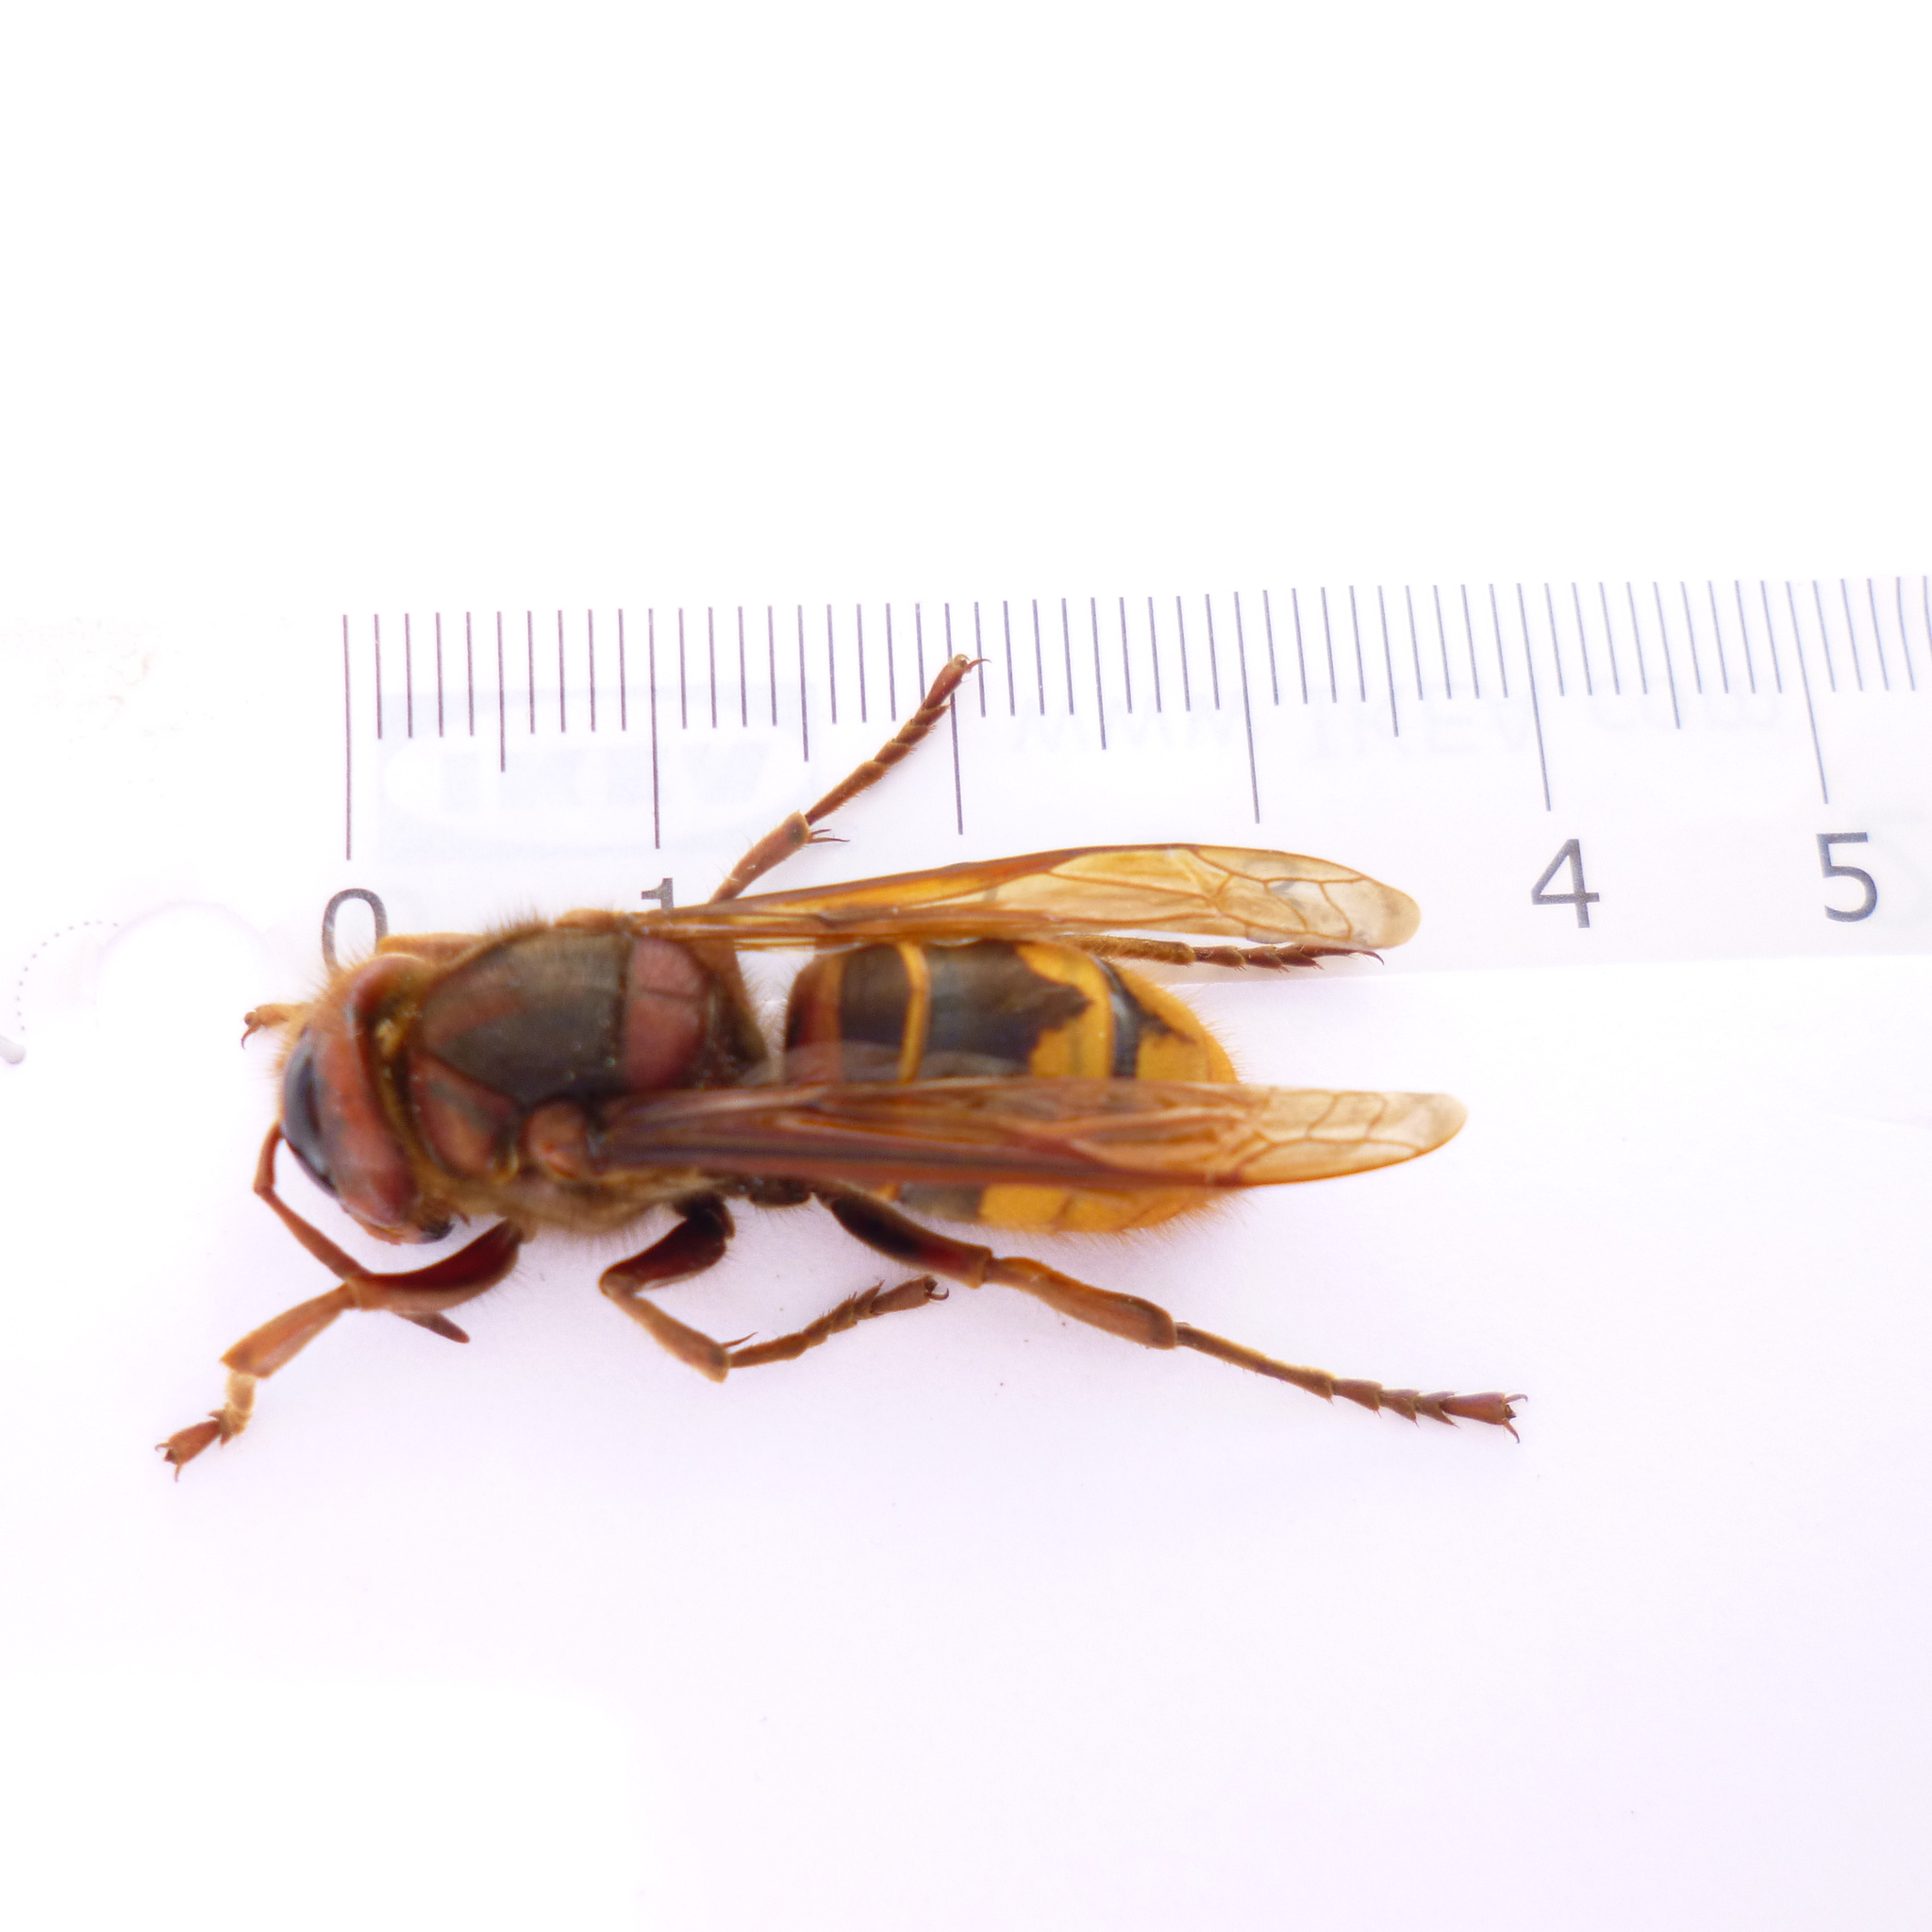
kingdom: Animalia
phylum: Arthropoda
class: Insecta
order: Hymenoptera
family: Vespidae
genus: Vespa
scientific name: Vespa crabro
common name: Hornet
